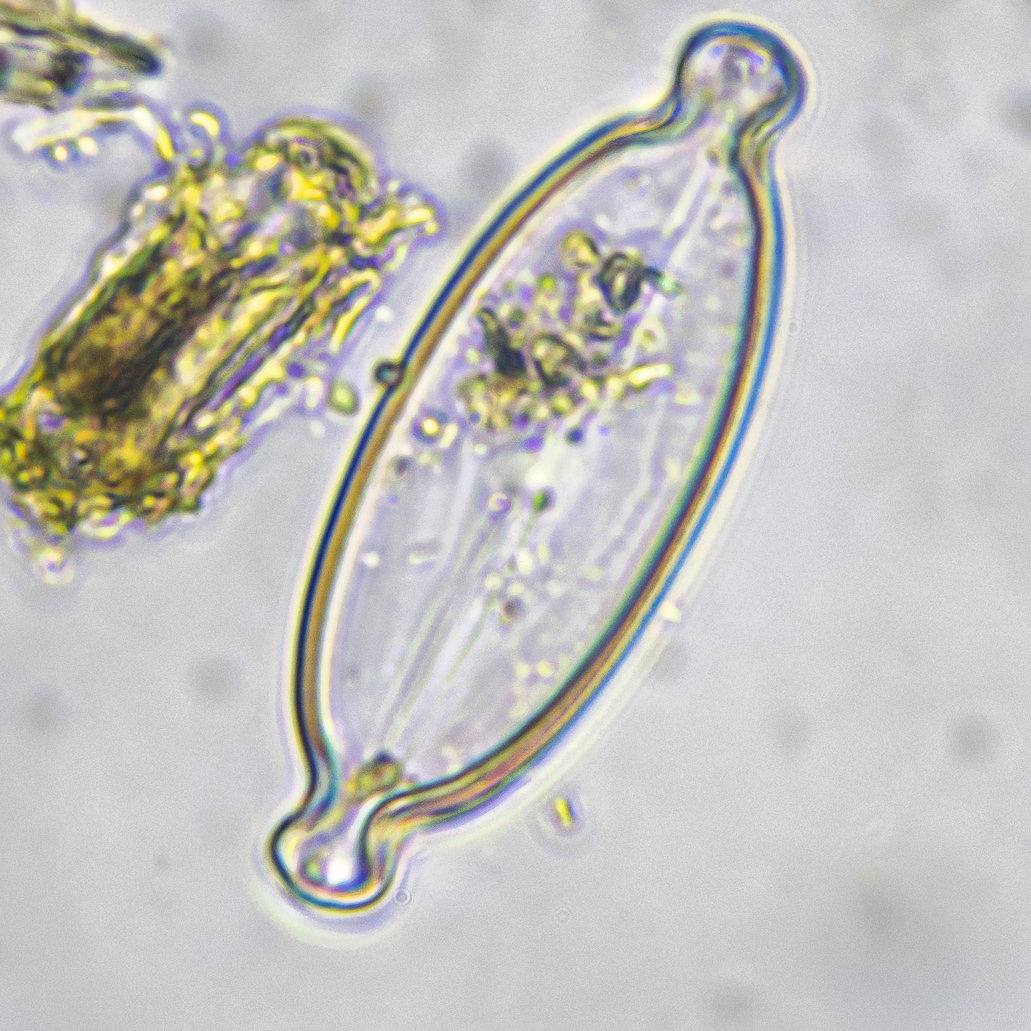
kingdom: Chromista
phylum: Ochrophyta
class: Bacillariophyceae
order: Naviculales
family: Naviculaceae
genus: Caloneis
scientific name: Caloneis amphisbaena
